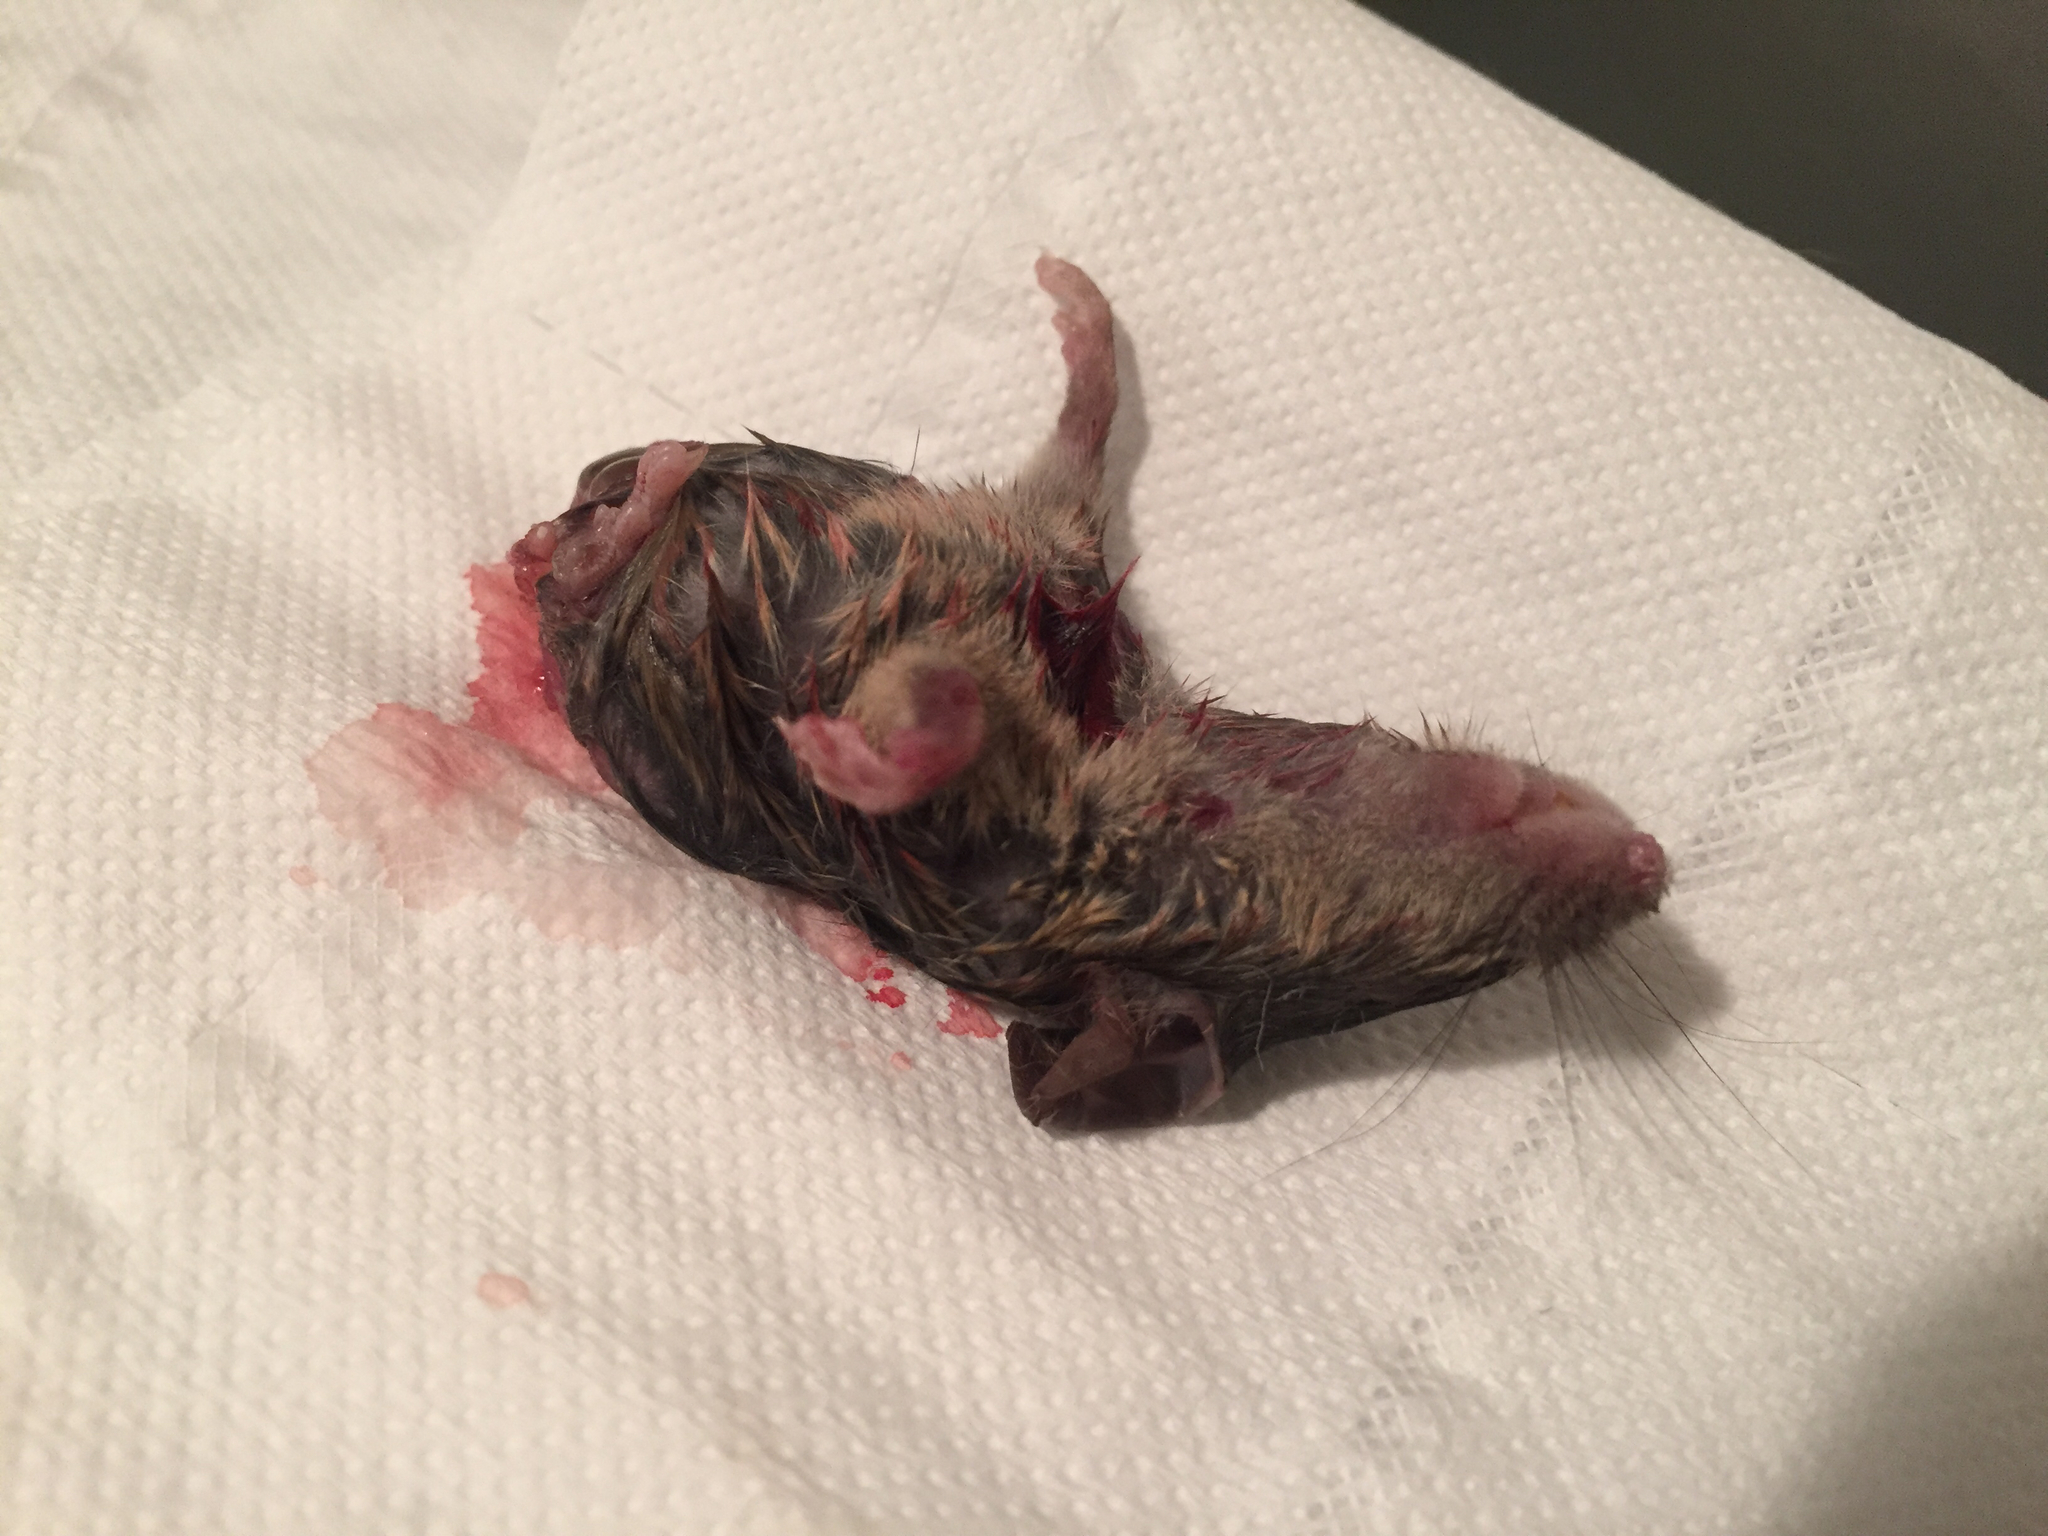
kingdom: Animalia
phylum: Chordata
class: Mammalia
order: Rodentia
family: Muridae
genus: Mus
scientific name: Mus musculus
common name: House mouse
